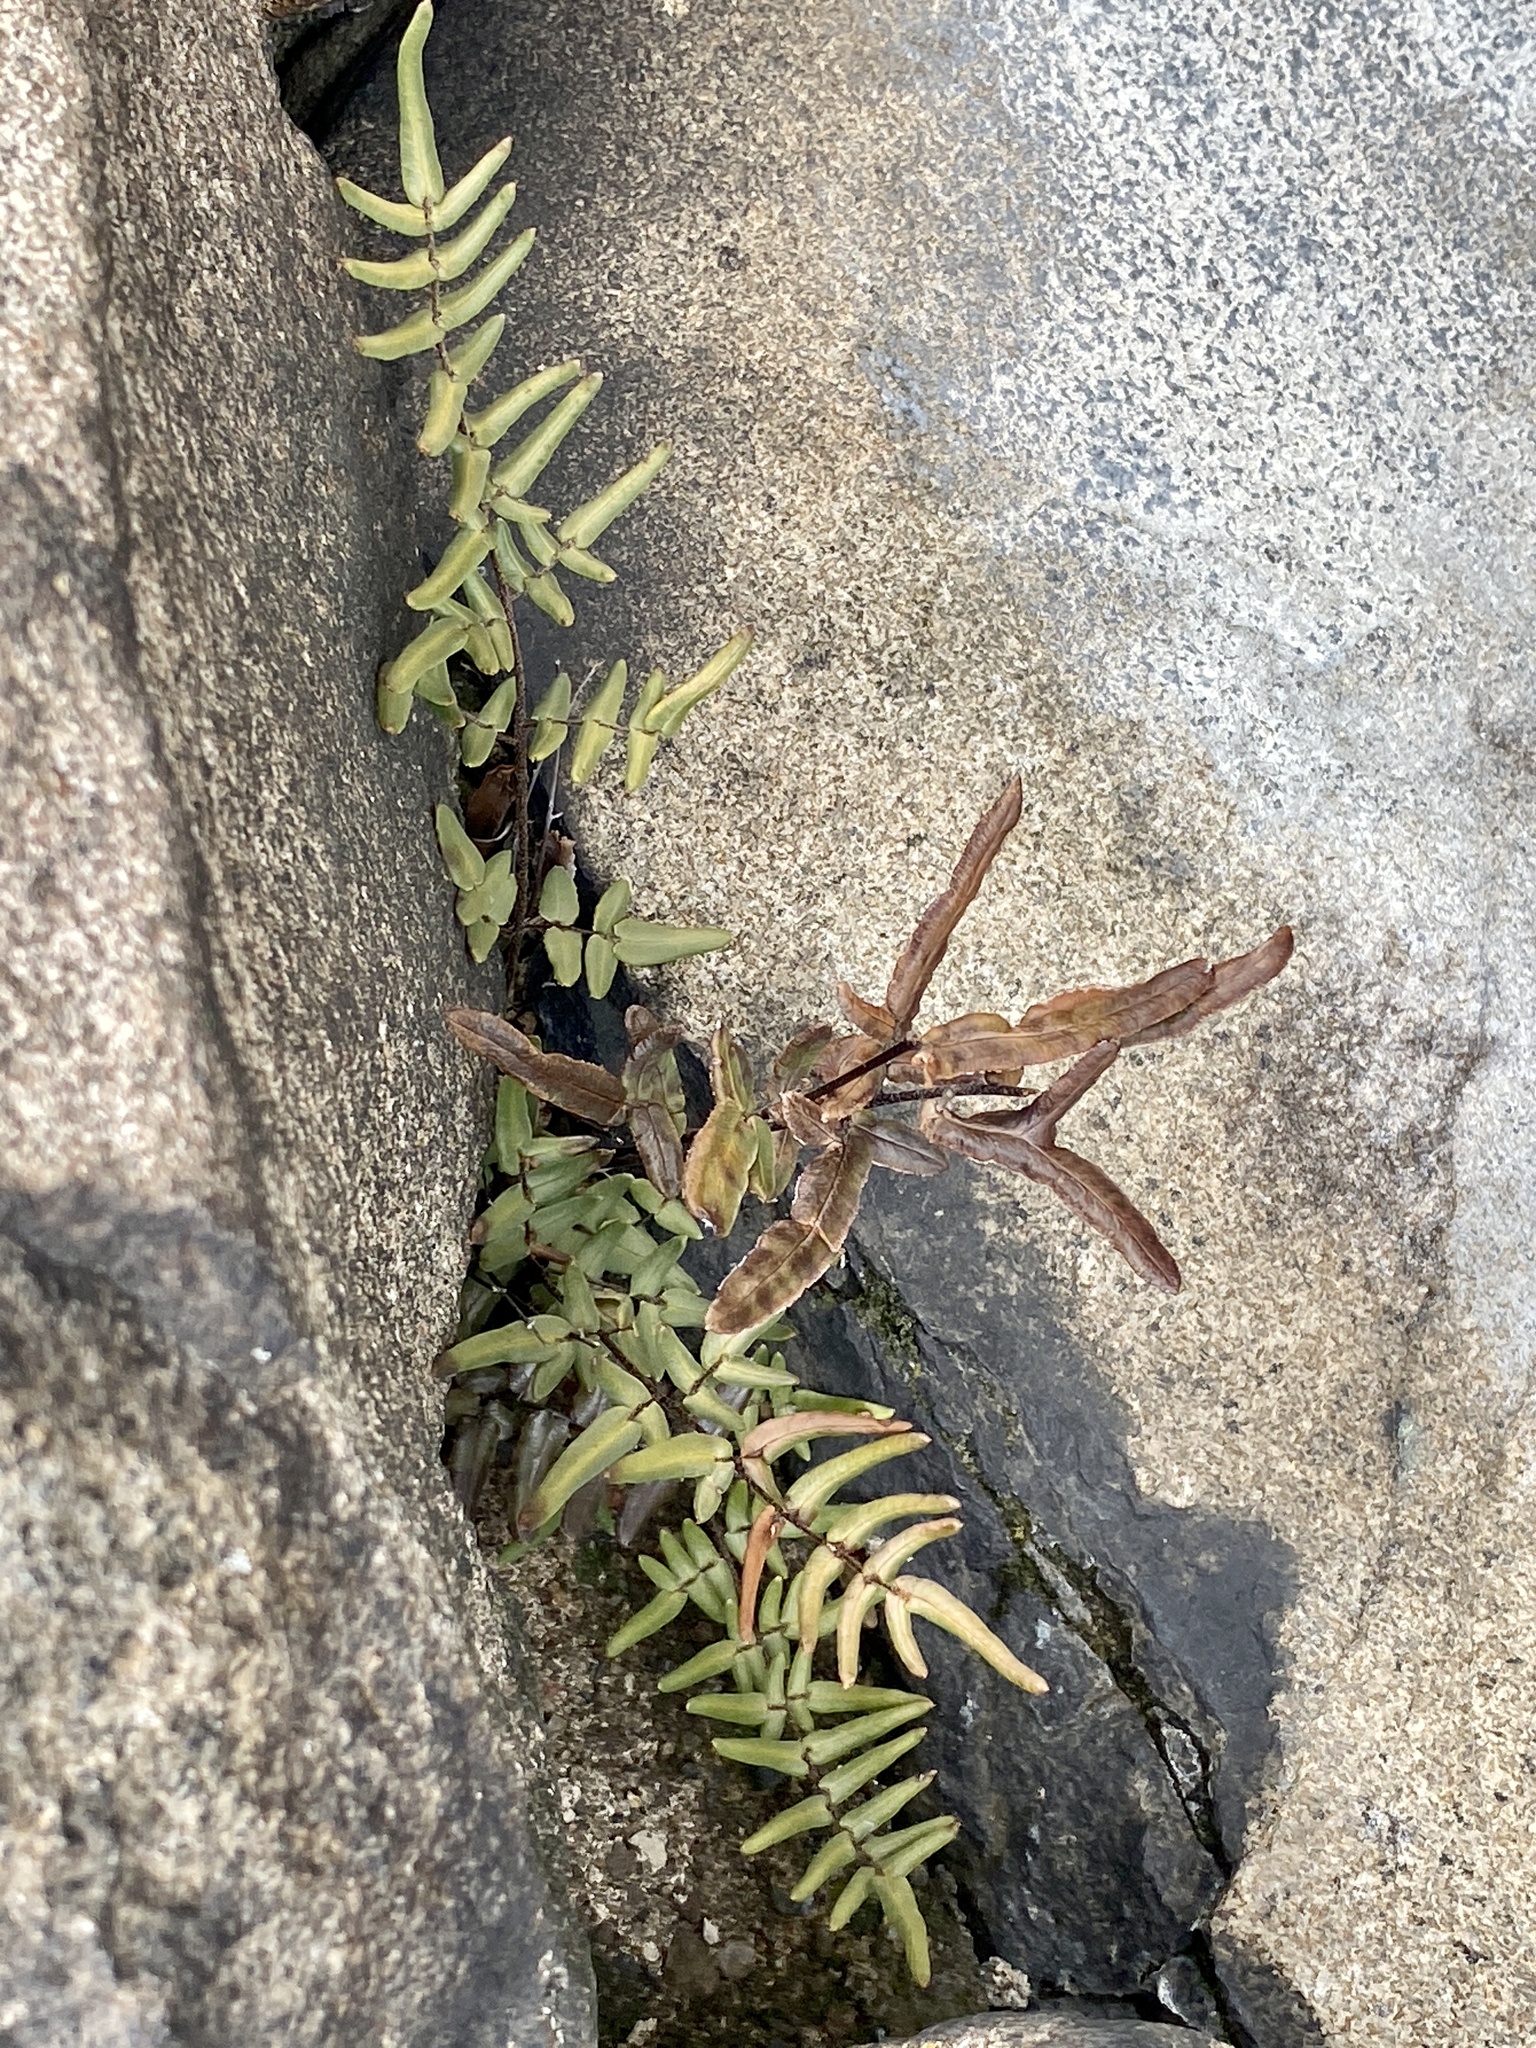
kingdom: Plantae
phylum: Tracheophyta
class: Polypodiopsida
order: Polypodiales
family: Pteridaceae
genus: Pellaea
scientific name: Pellaea atropurpurea
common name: Hairy cliffbrake
